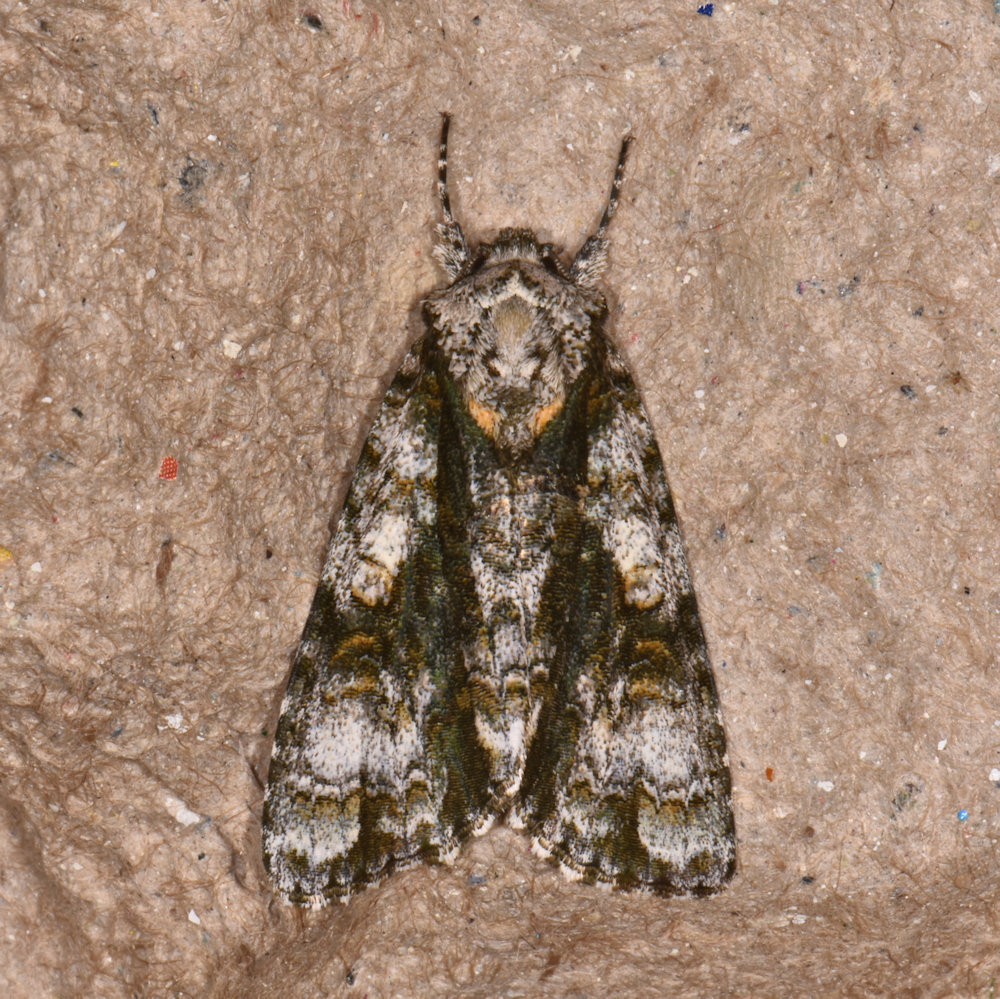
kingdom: Animalia
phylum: Arthropoda
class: Insecta
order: Lepidoptera
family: Noctuidae
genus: Acronicta
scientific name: Acronicta superans
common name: Splendid dagger
